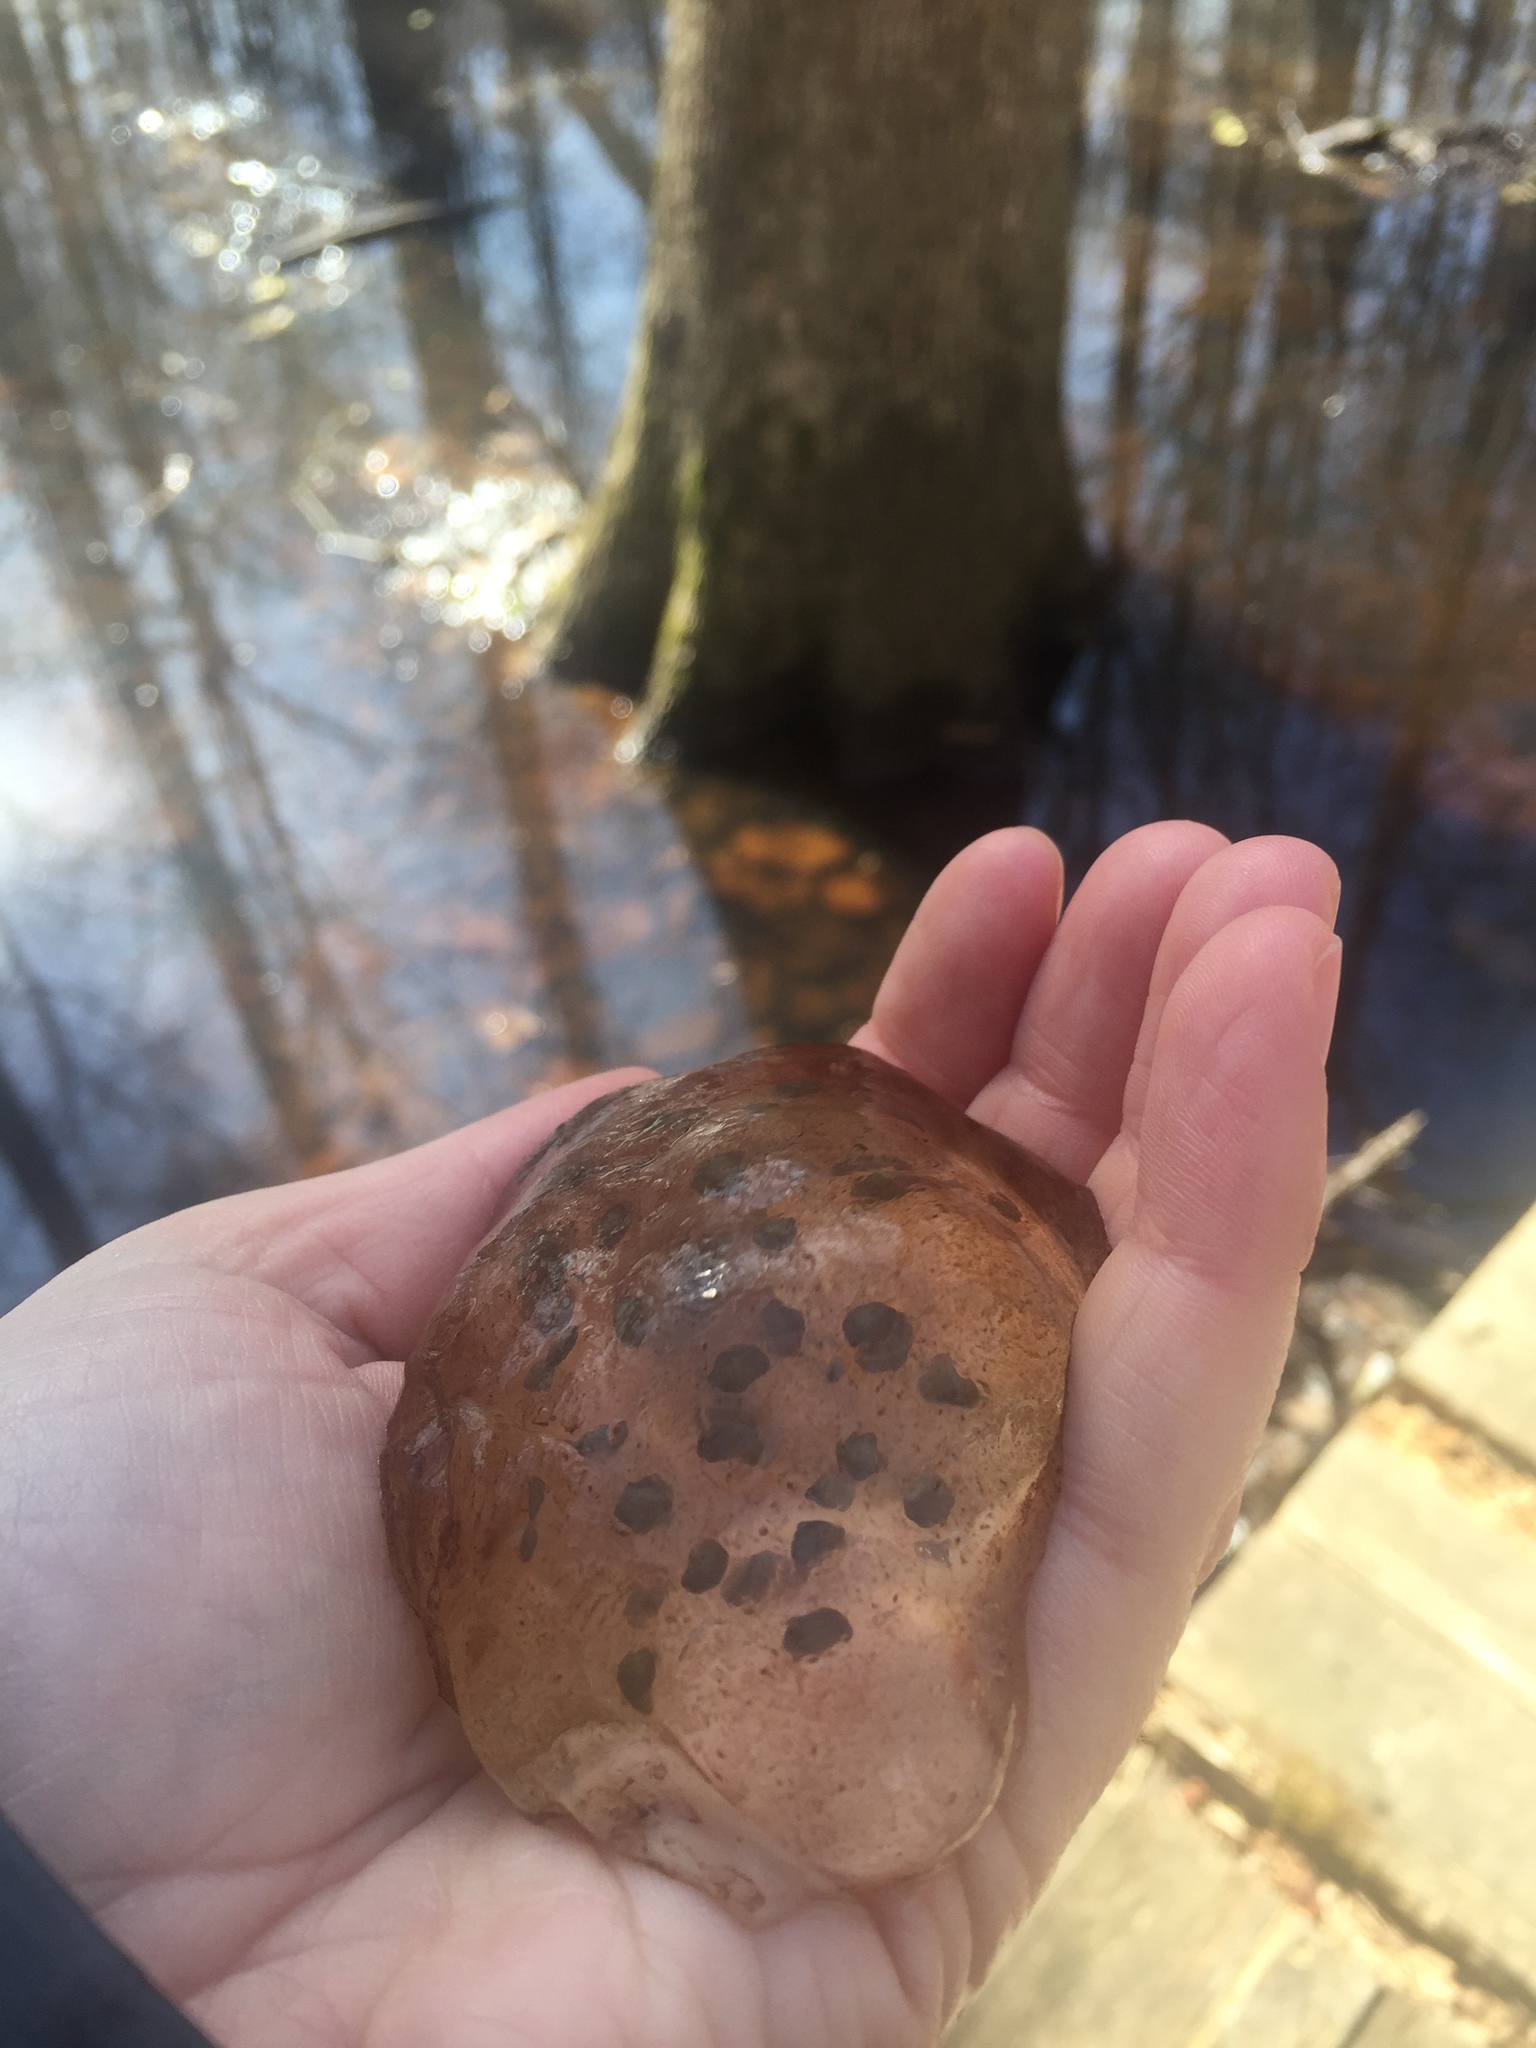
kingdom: Animalia
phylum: Chordata
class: Amphibia
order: Caudata
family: Ambystomatidae
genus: Ambystoma
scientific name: Ambystoma maculatum
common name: Spotted salamander
